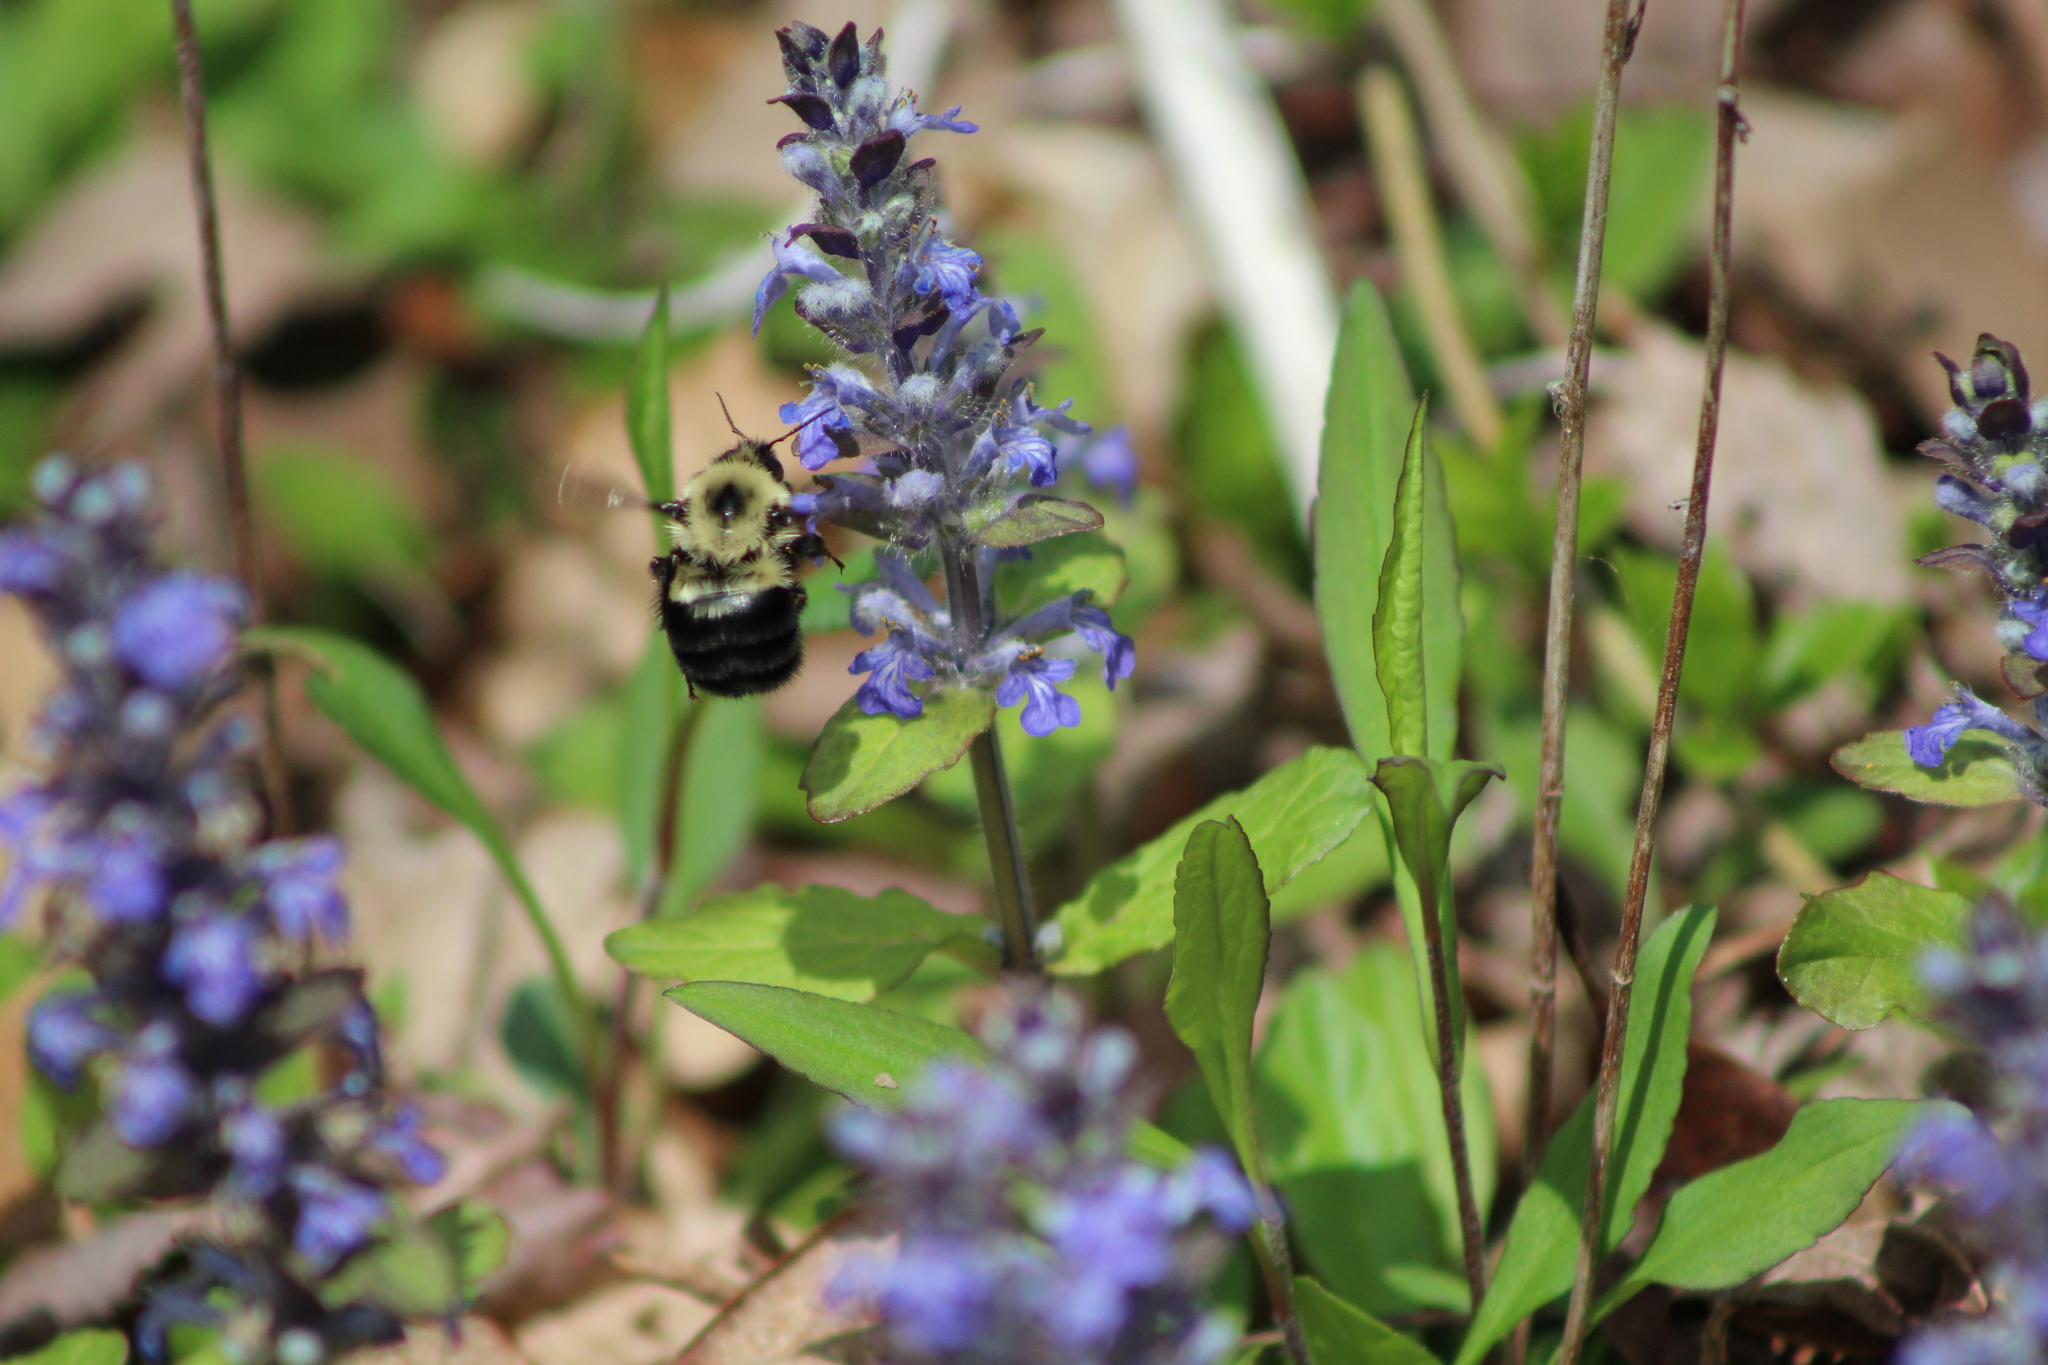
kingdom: Animalia
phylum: Arthropoda
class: Insecta
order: Hymenoptera
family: Apidae
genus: Bombus
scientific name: Bombus bimaculatus
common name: Two-spotted bumble bee
